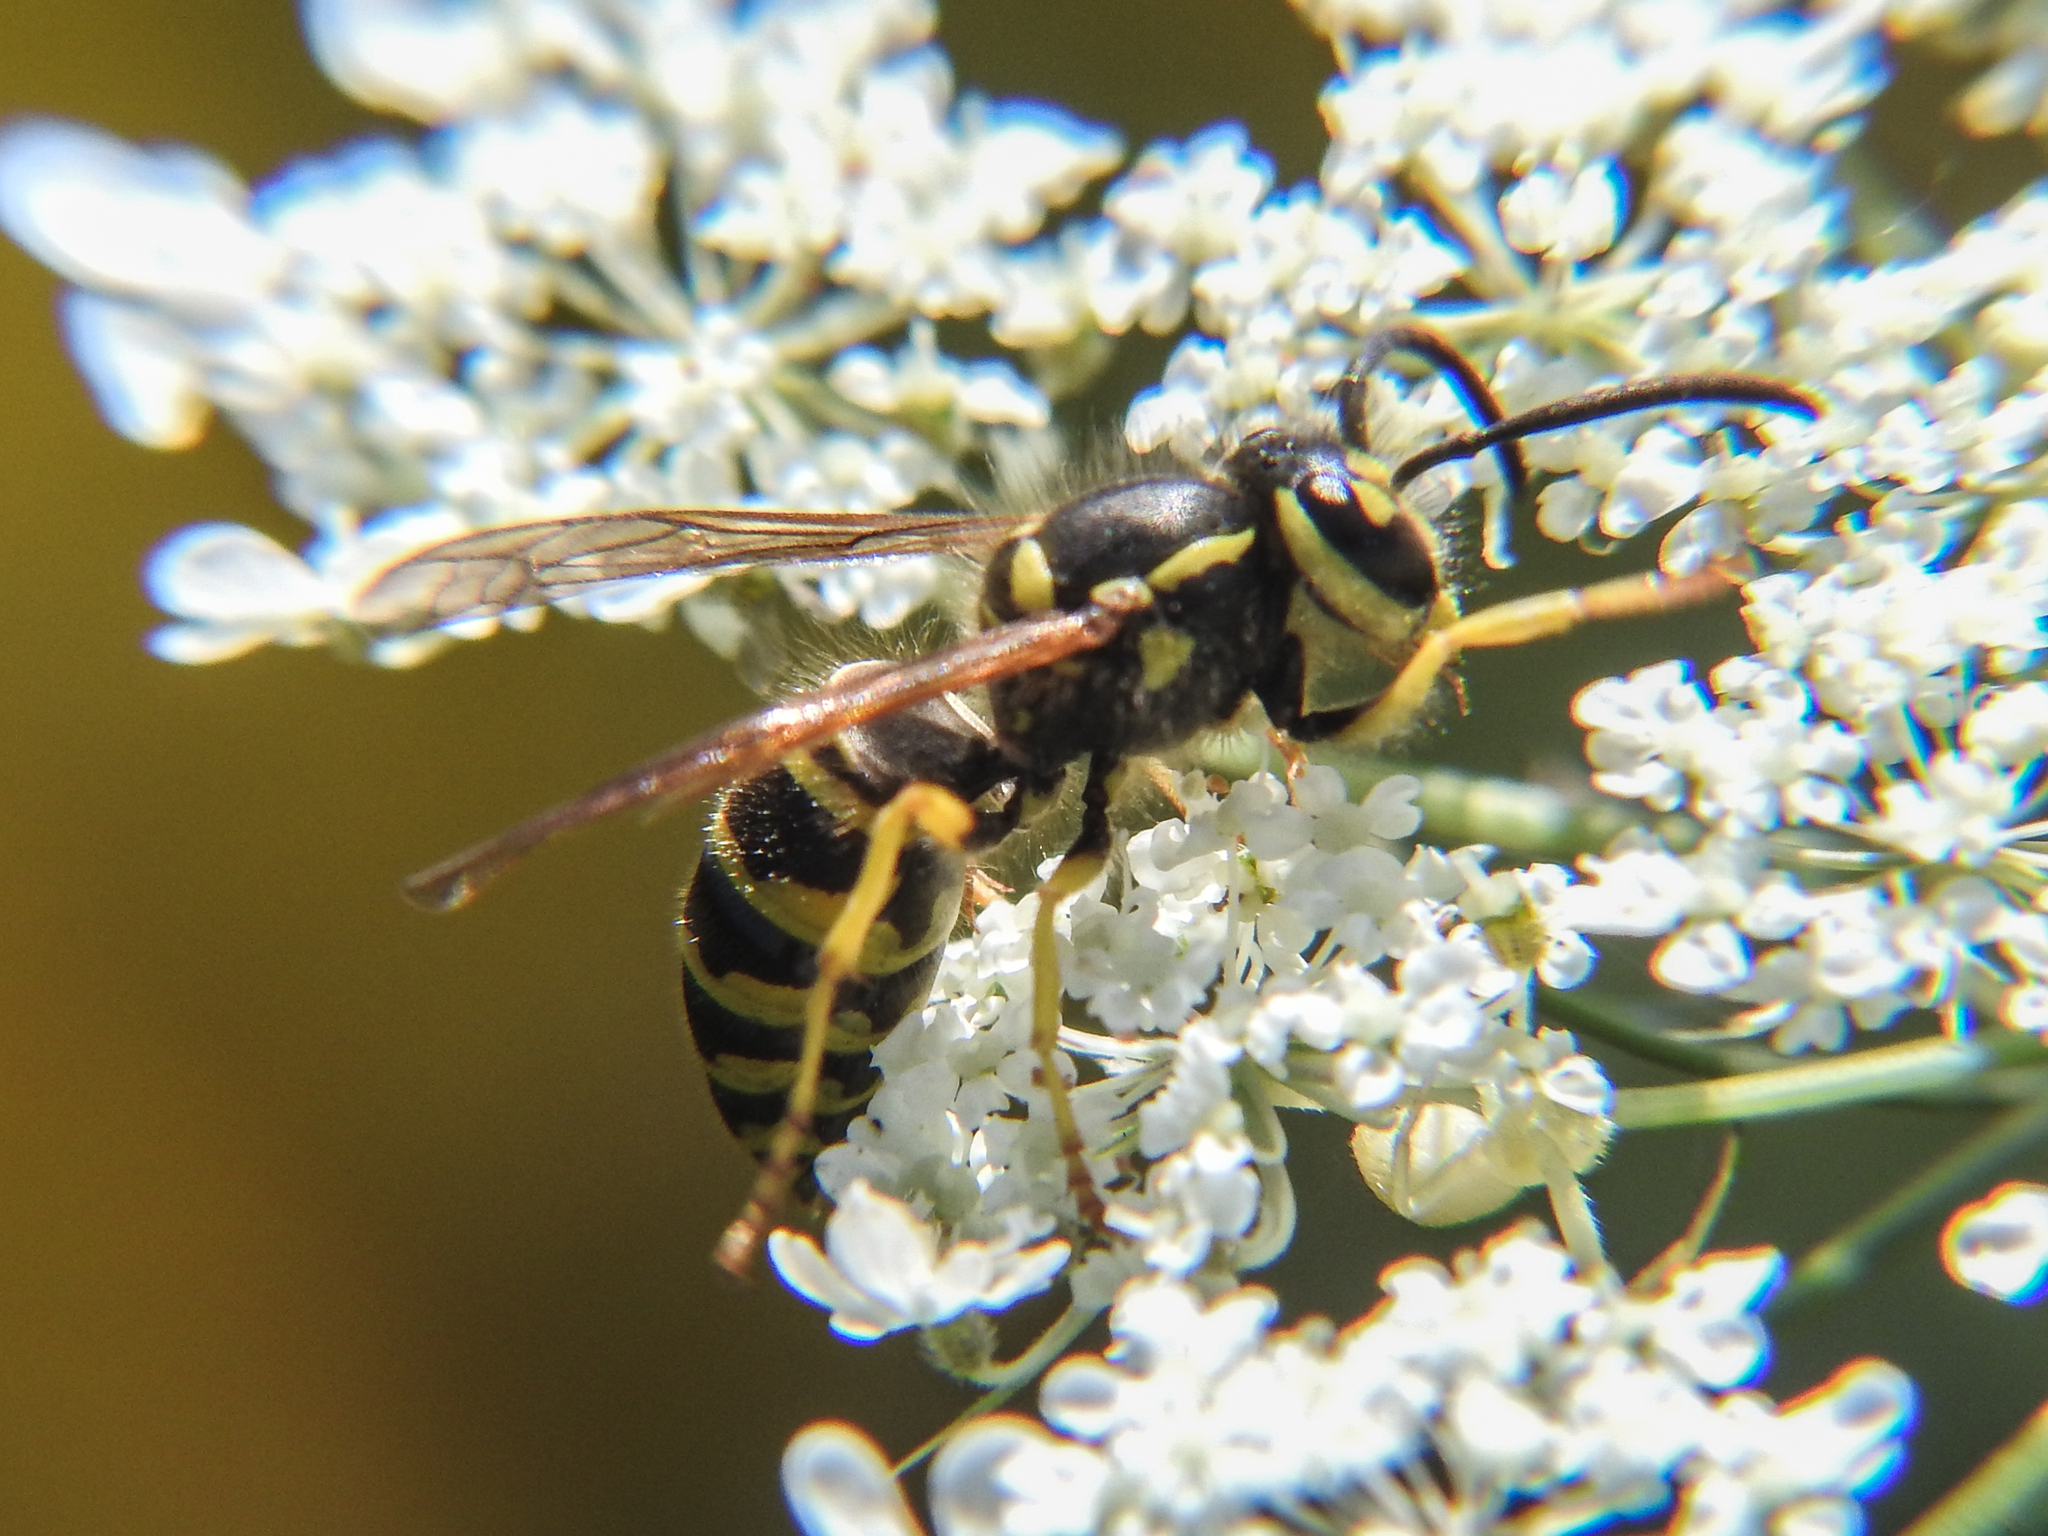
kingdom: Animalia
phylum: Arthropoda
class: Insecta
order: Hymenoptera
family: Vespidae
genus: Vespula
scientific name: Vespula maculifrons
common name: Eastern yellowjacket
